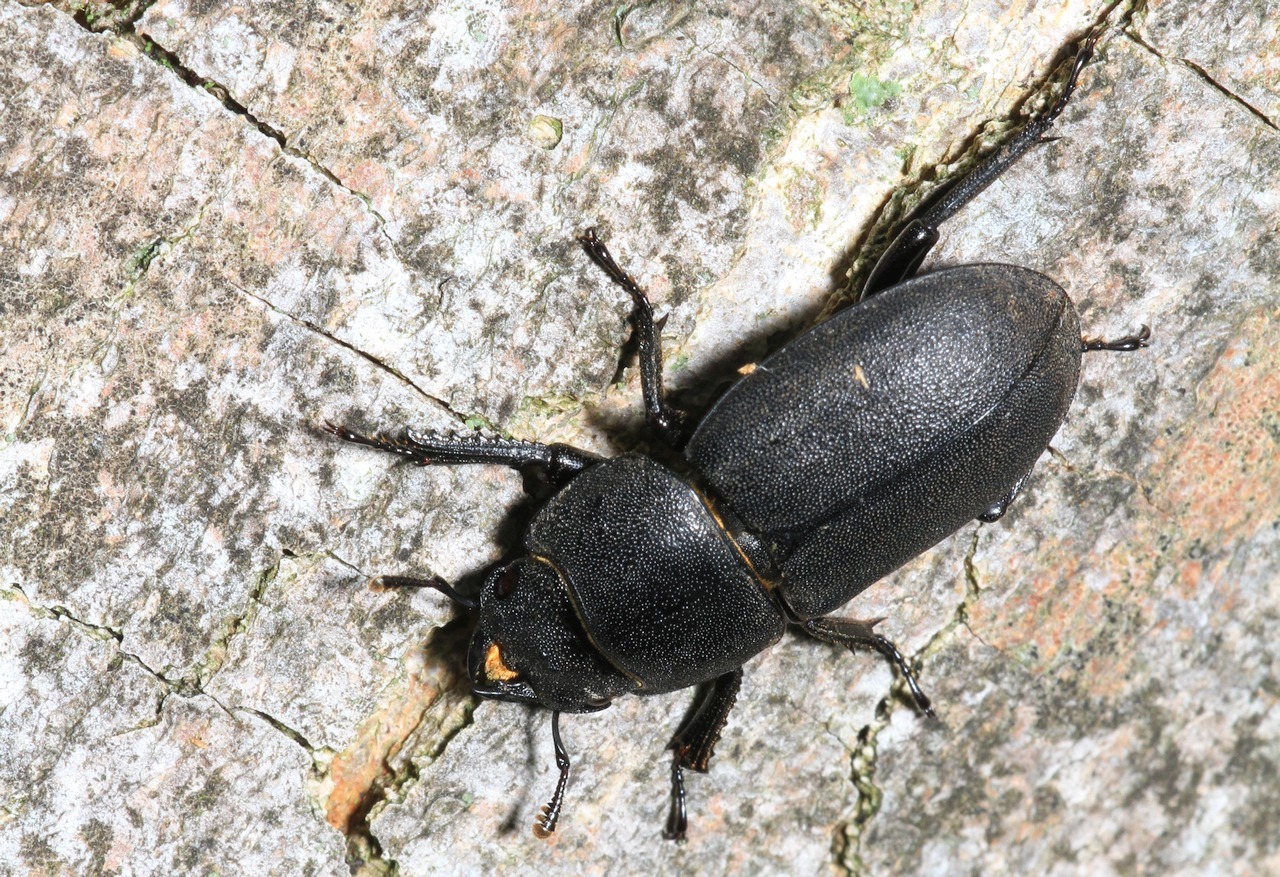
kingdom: Animalia
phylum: Arthropoda
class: Insecta
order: Coleoptera
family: Lucanidae
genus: Dorcus
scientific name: Dorcus parallelipipedus
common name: Lesser stag beetle
